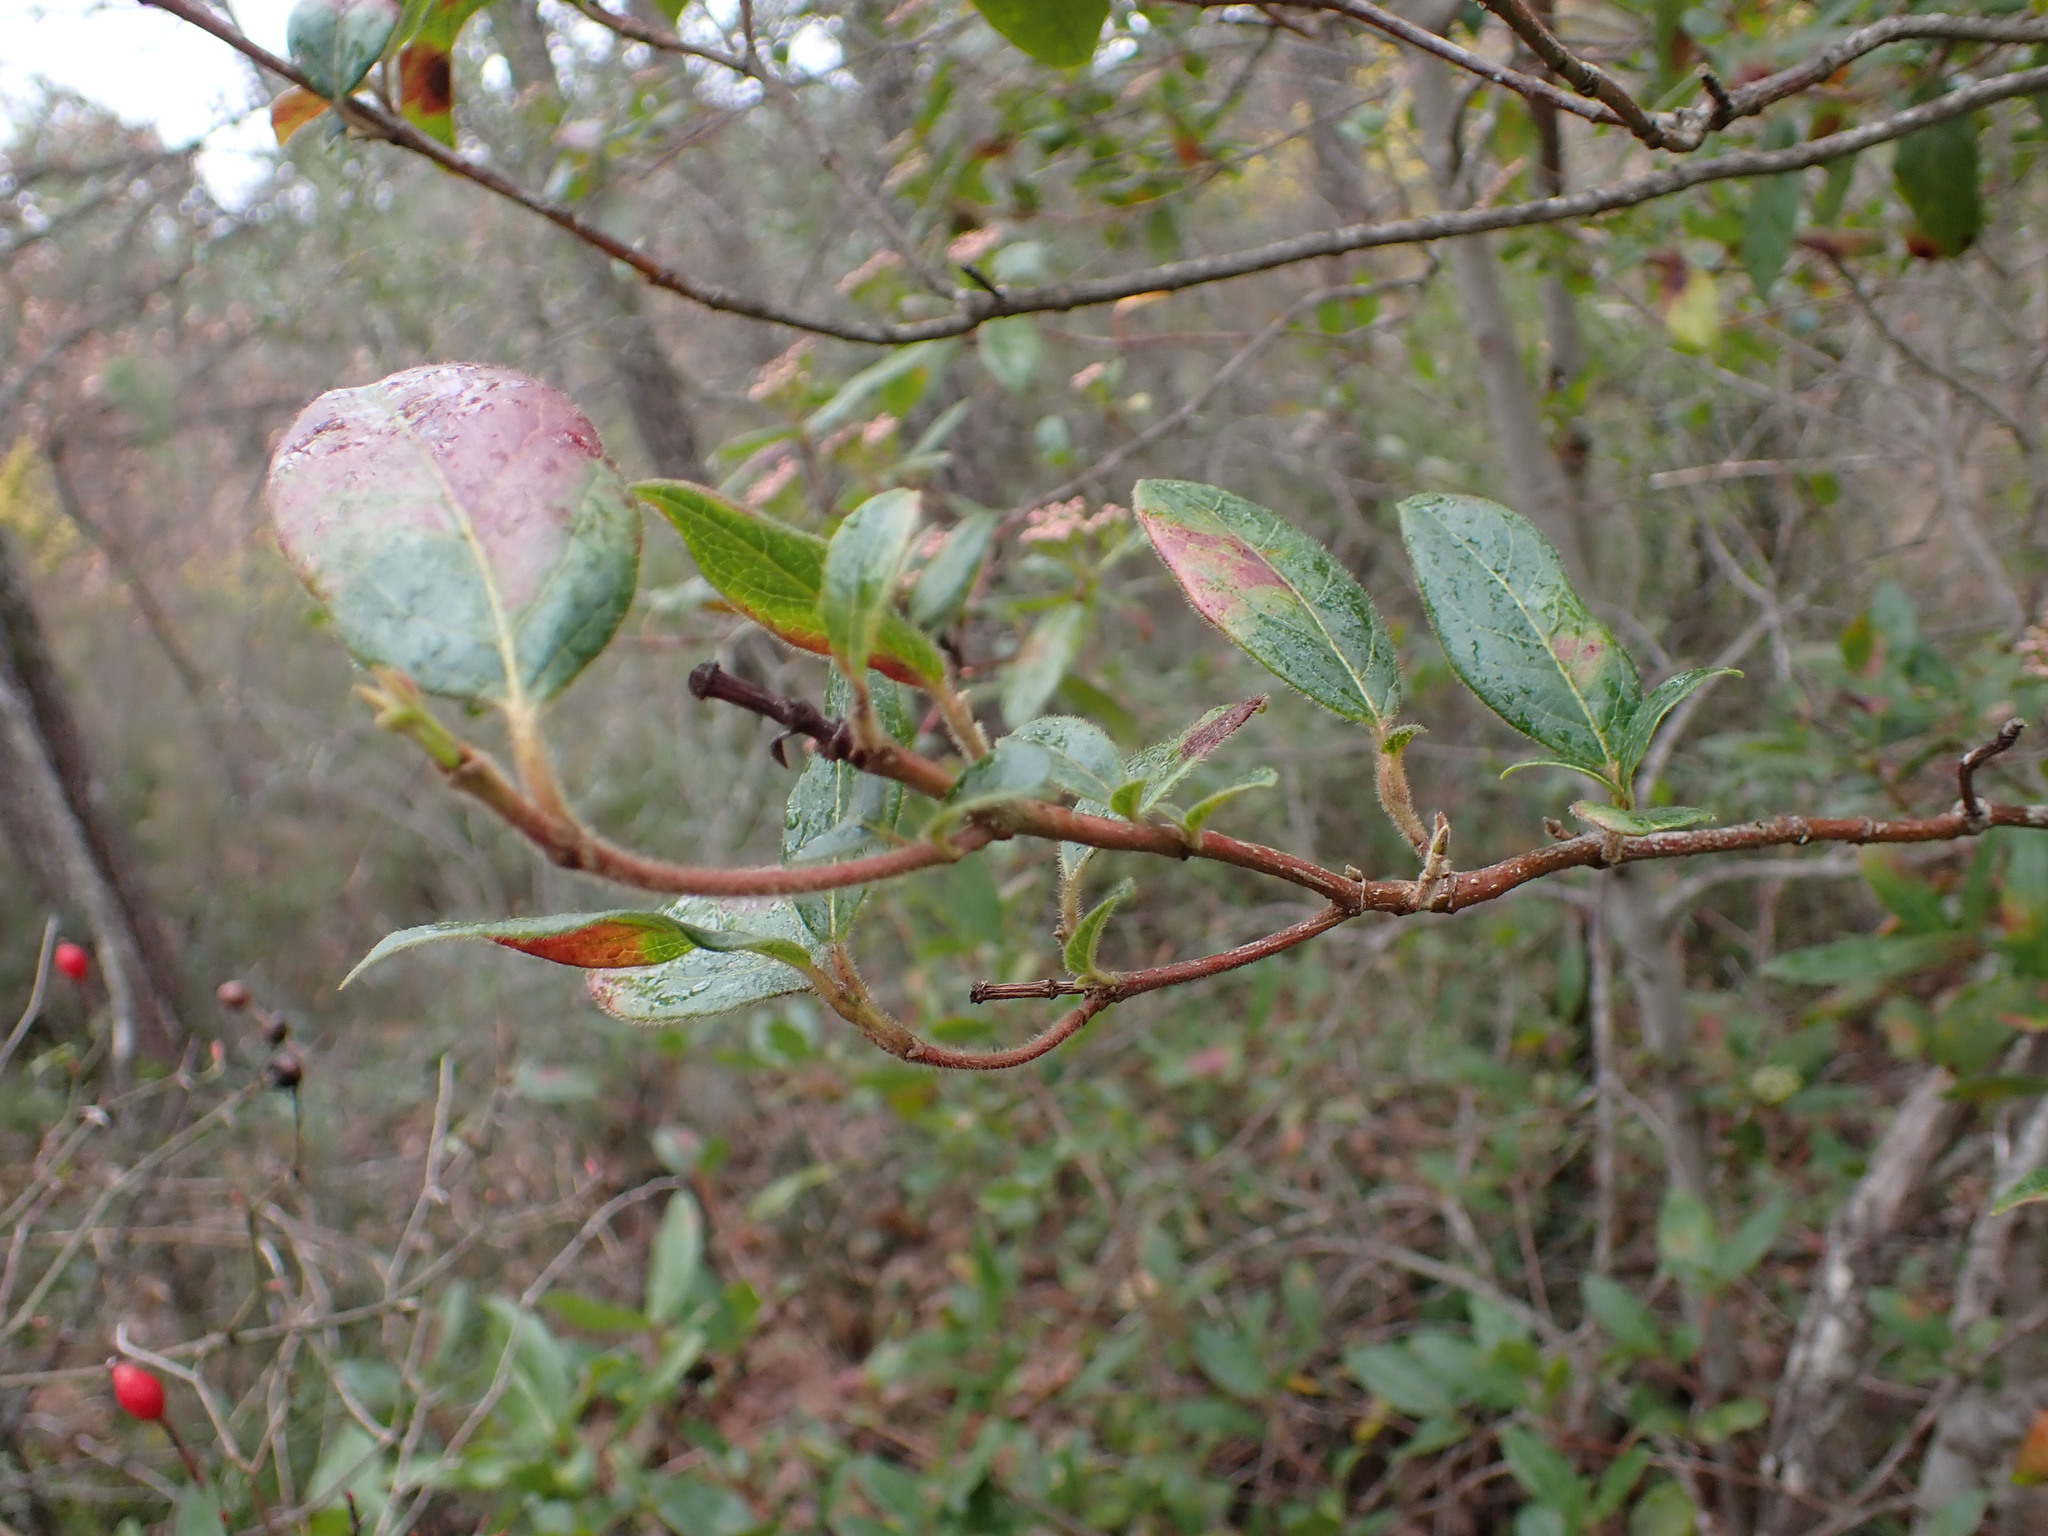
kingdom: Plantae
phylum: Tracheophyta
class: Magnoliopsida
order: Dipsacales
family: Viburnaceae
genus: Viburnum
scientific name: Viburnum tinus
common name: Laurustinus
